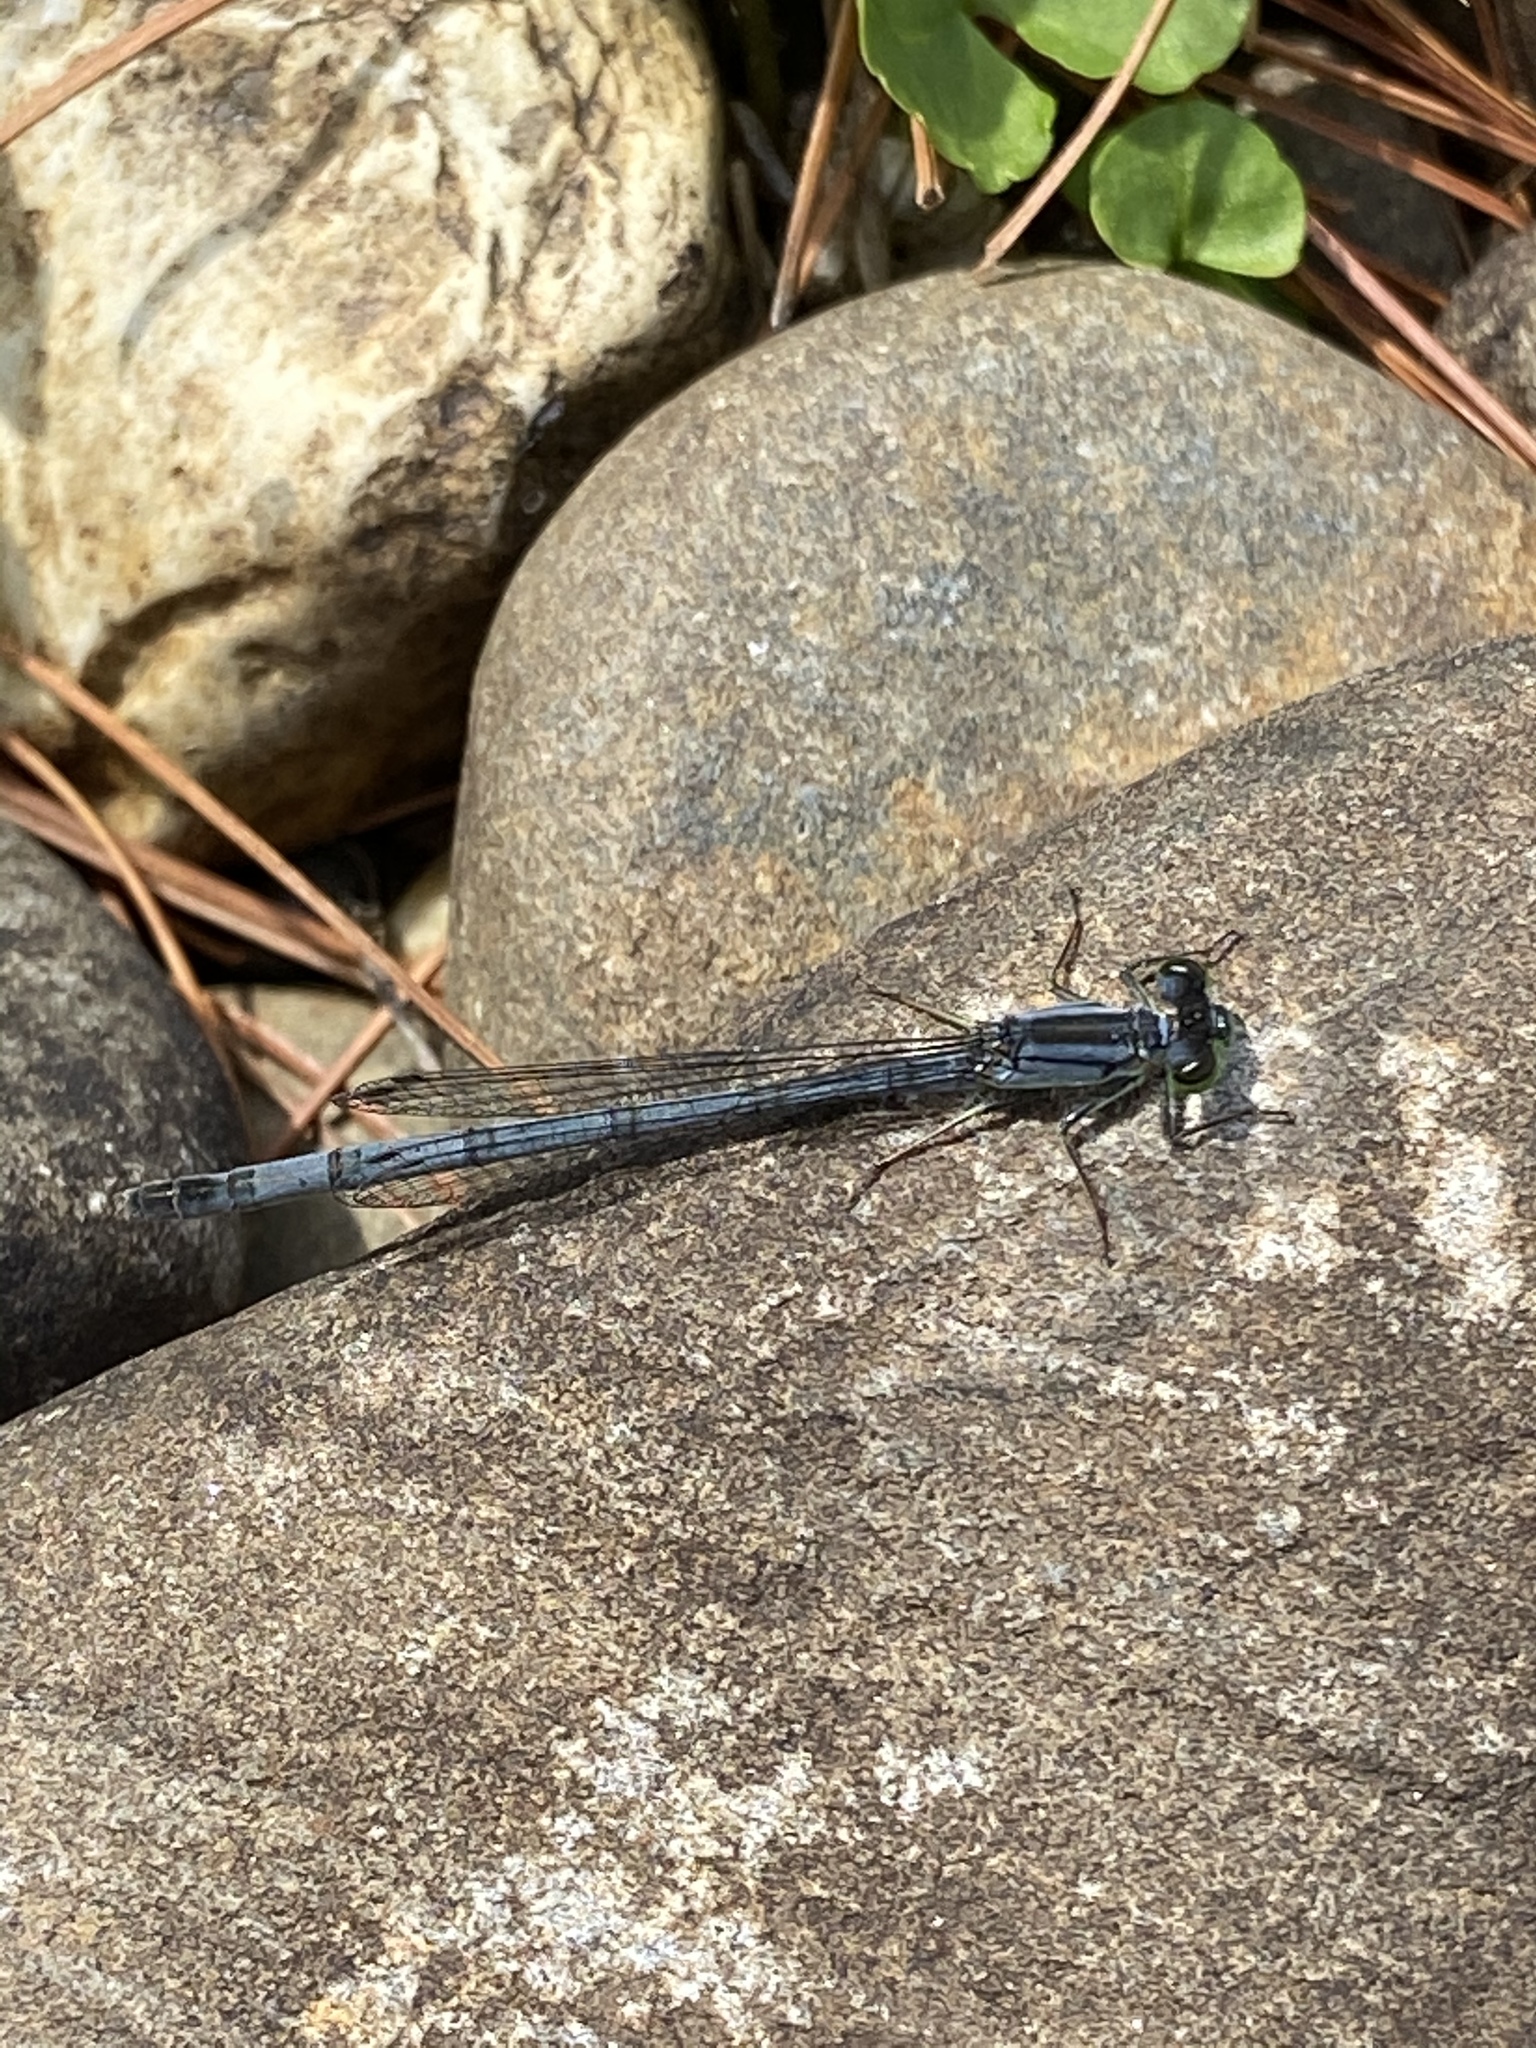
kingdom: Animalia
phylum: Arthropoda
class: Insecta
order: Odonata
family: Coenagrionidae
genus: Ischnura
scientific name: Ischnura verticalis
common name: Eastern forktail
